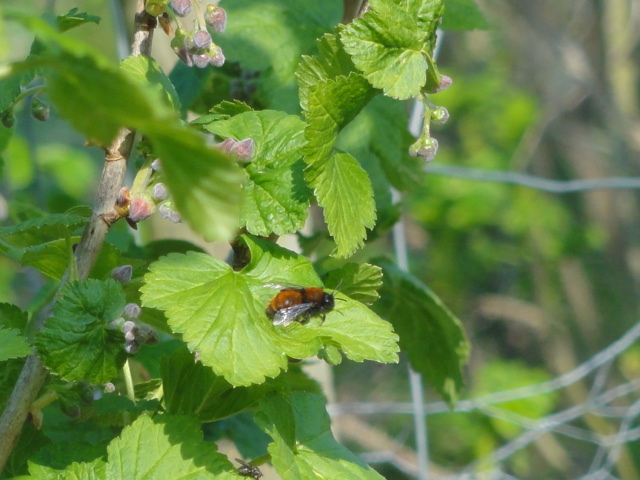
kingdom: Animalia
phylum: Arthropoda
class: Insecta
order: Hymenoptera
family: Andrenidae
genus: Andrena
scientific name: Andrena fulva
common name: Tawny mining bee
